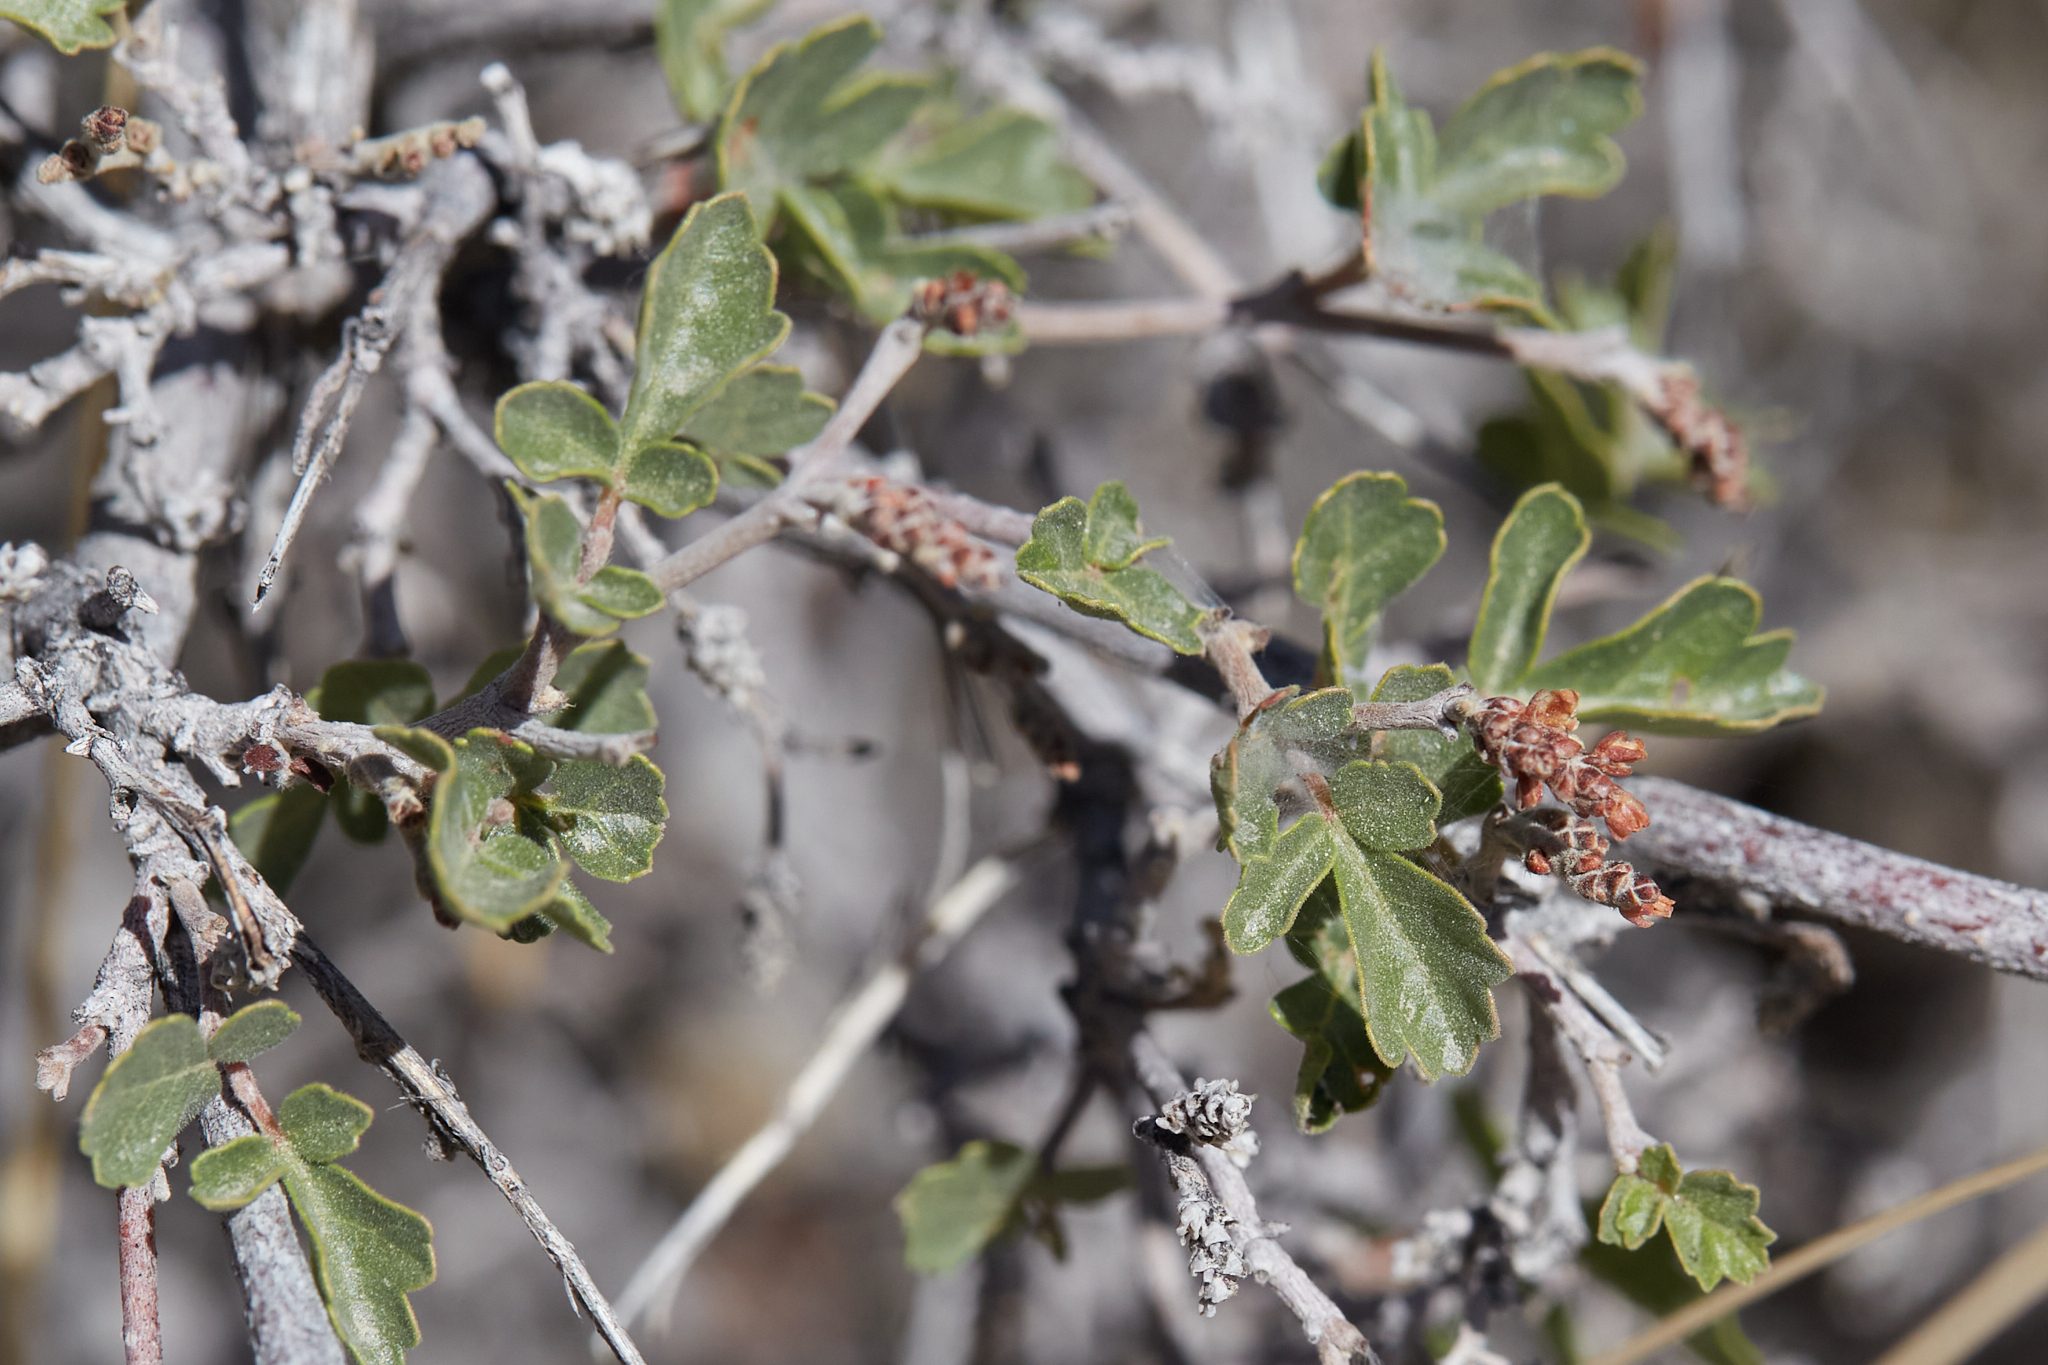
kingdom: Plantae
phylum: Tracheophyta
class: Magnoliopsida
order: Sapindales
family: Anacardiaceae
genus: Rhus
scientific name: Rhus aromatica
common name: Aromatic sumac
